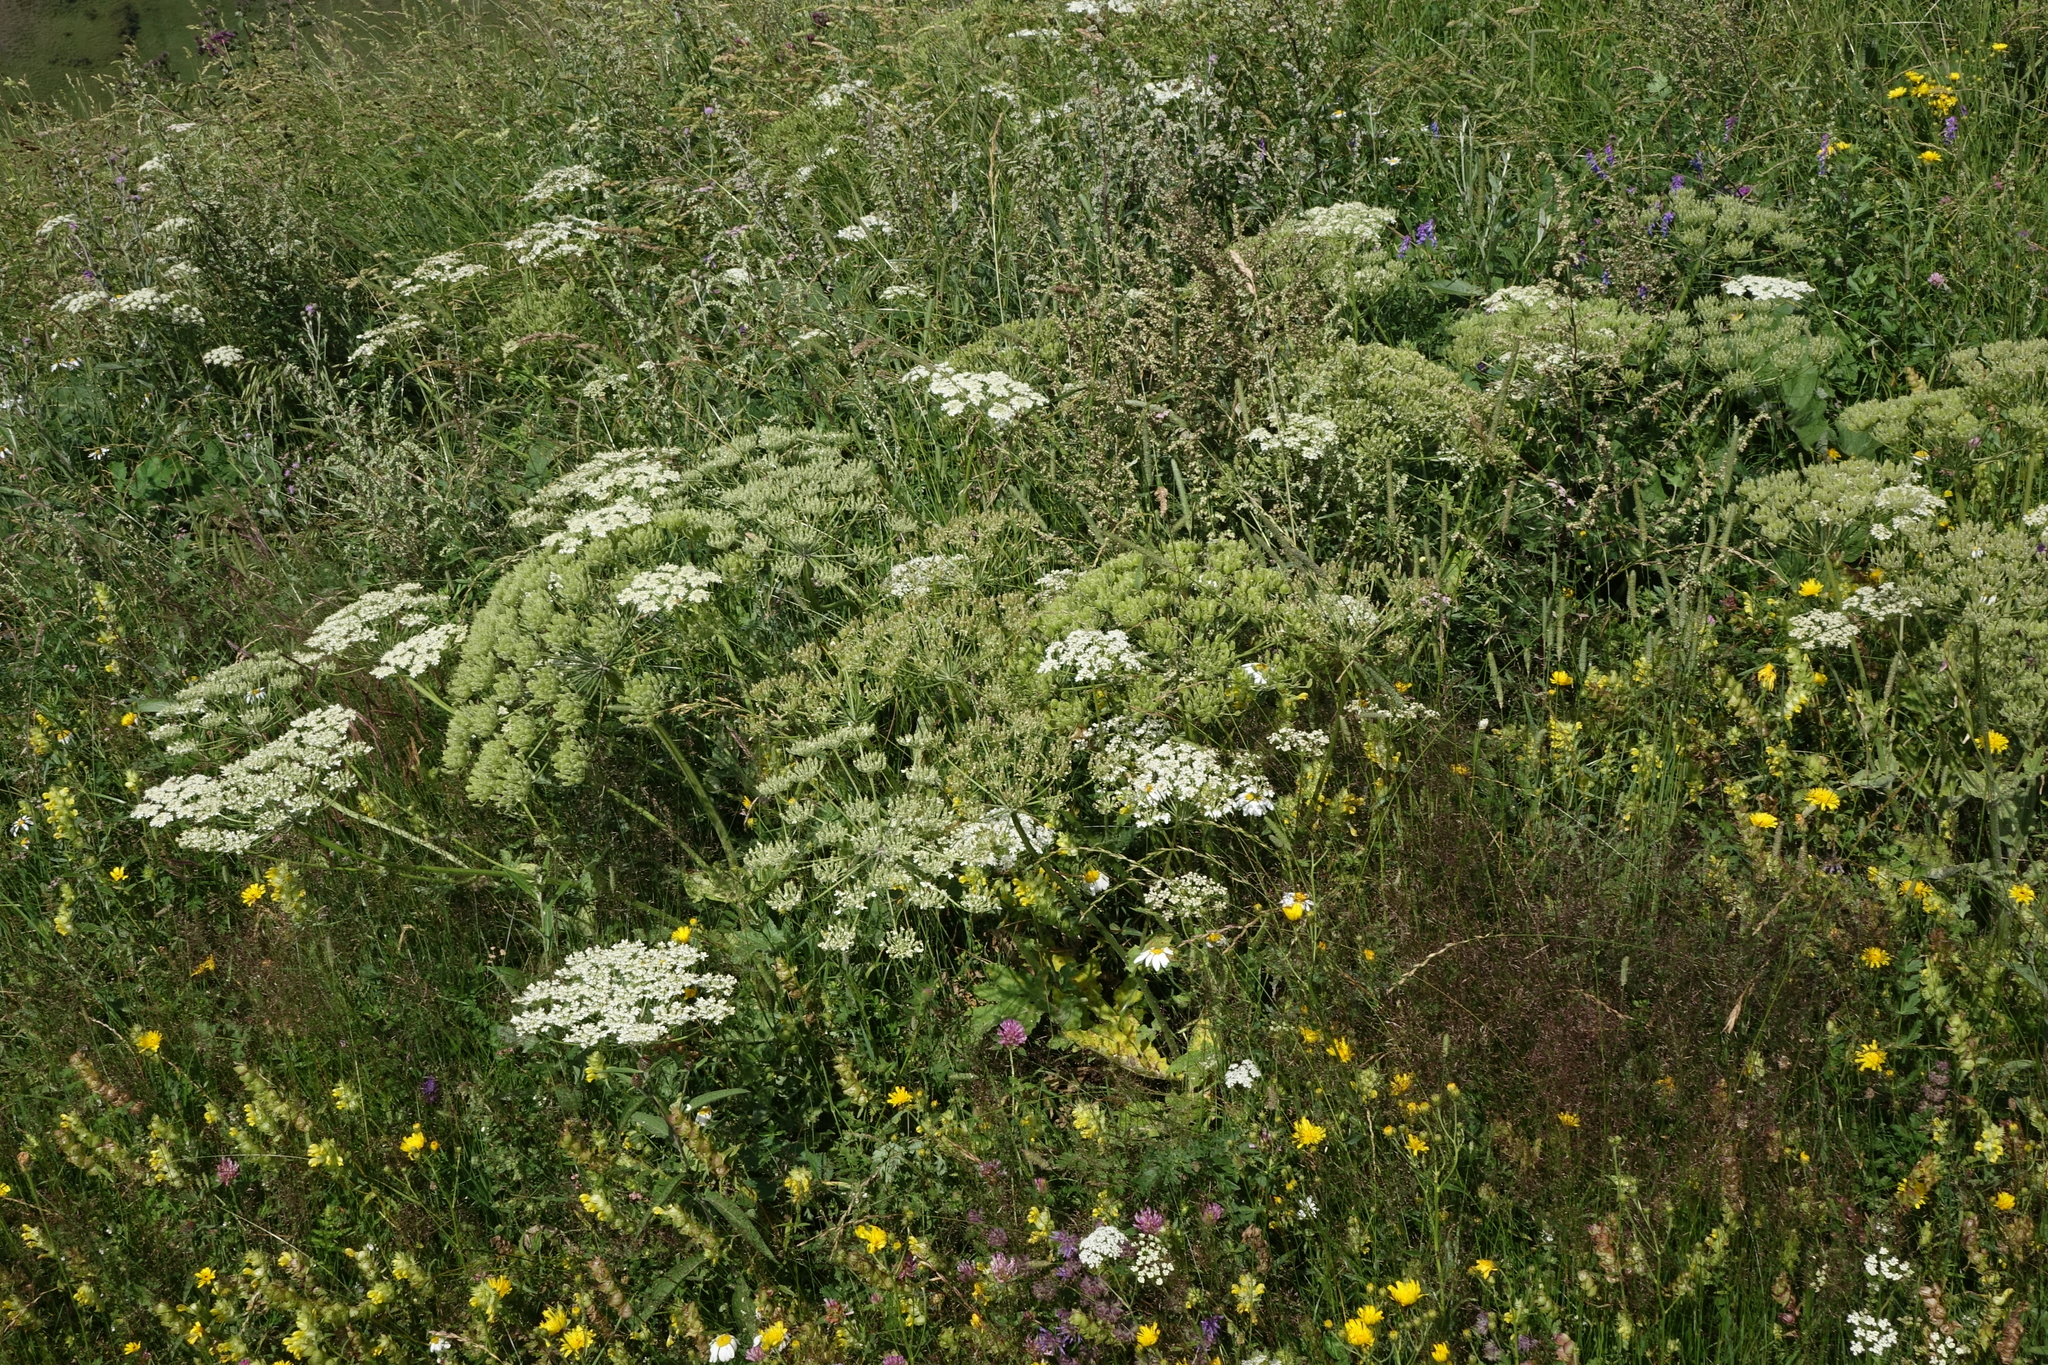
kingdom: Plantae
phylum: Tracheophyta
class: Magnoliopsida
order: Apiales
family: Apiaceae
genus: Heracleum
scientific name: Heracleum grandiflorum
